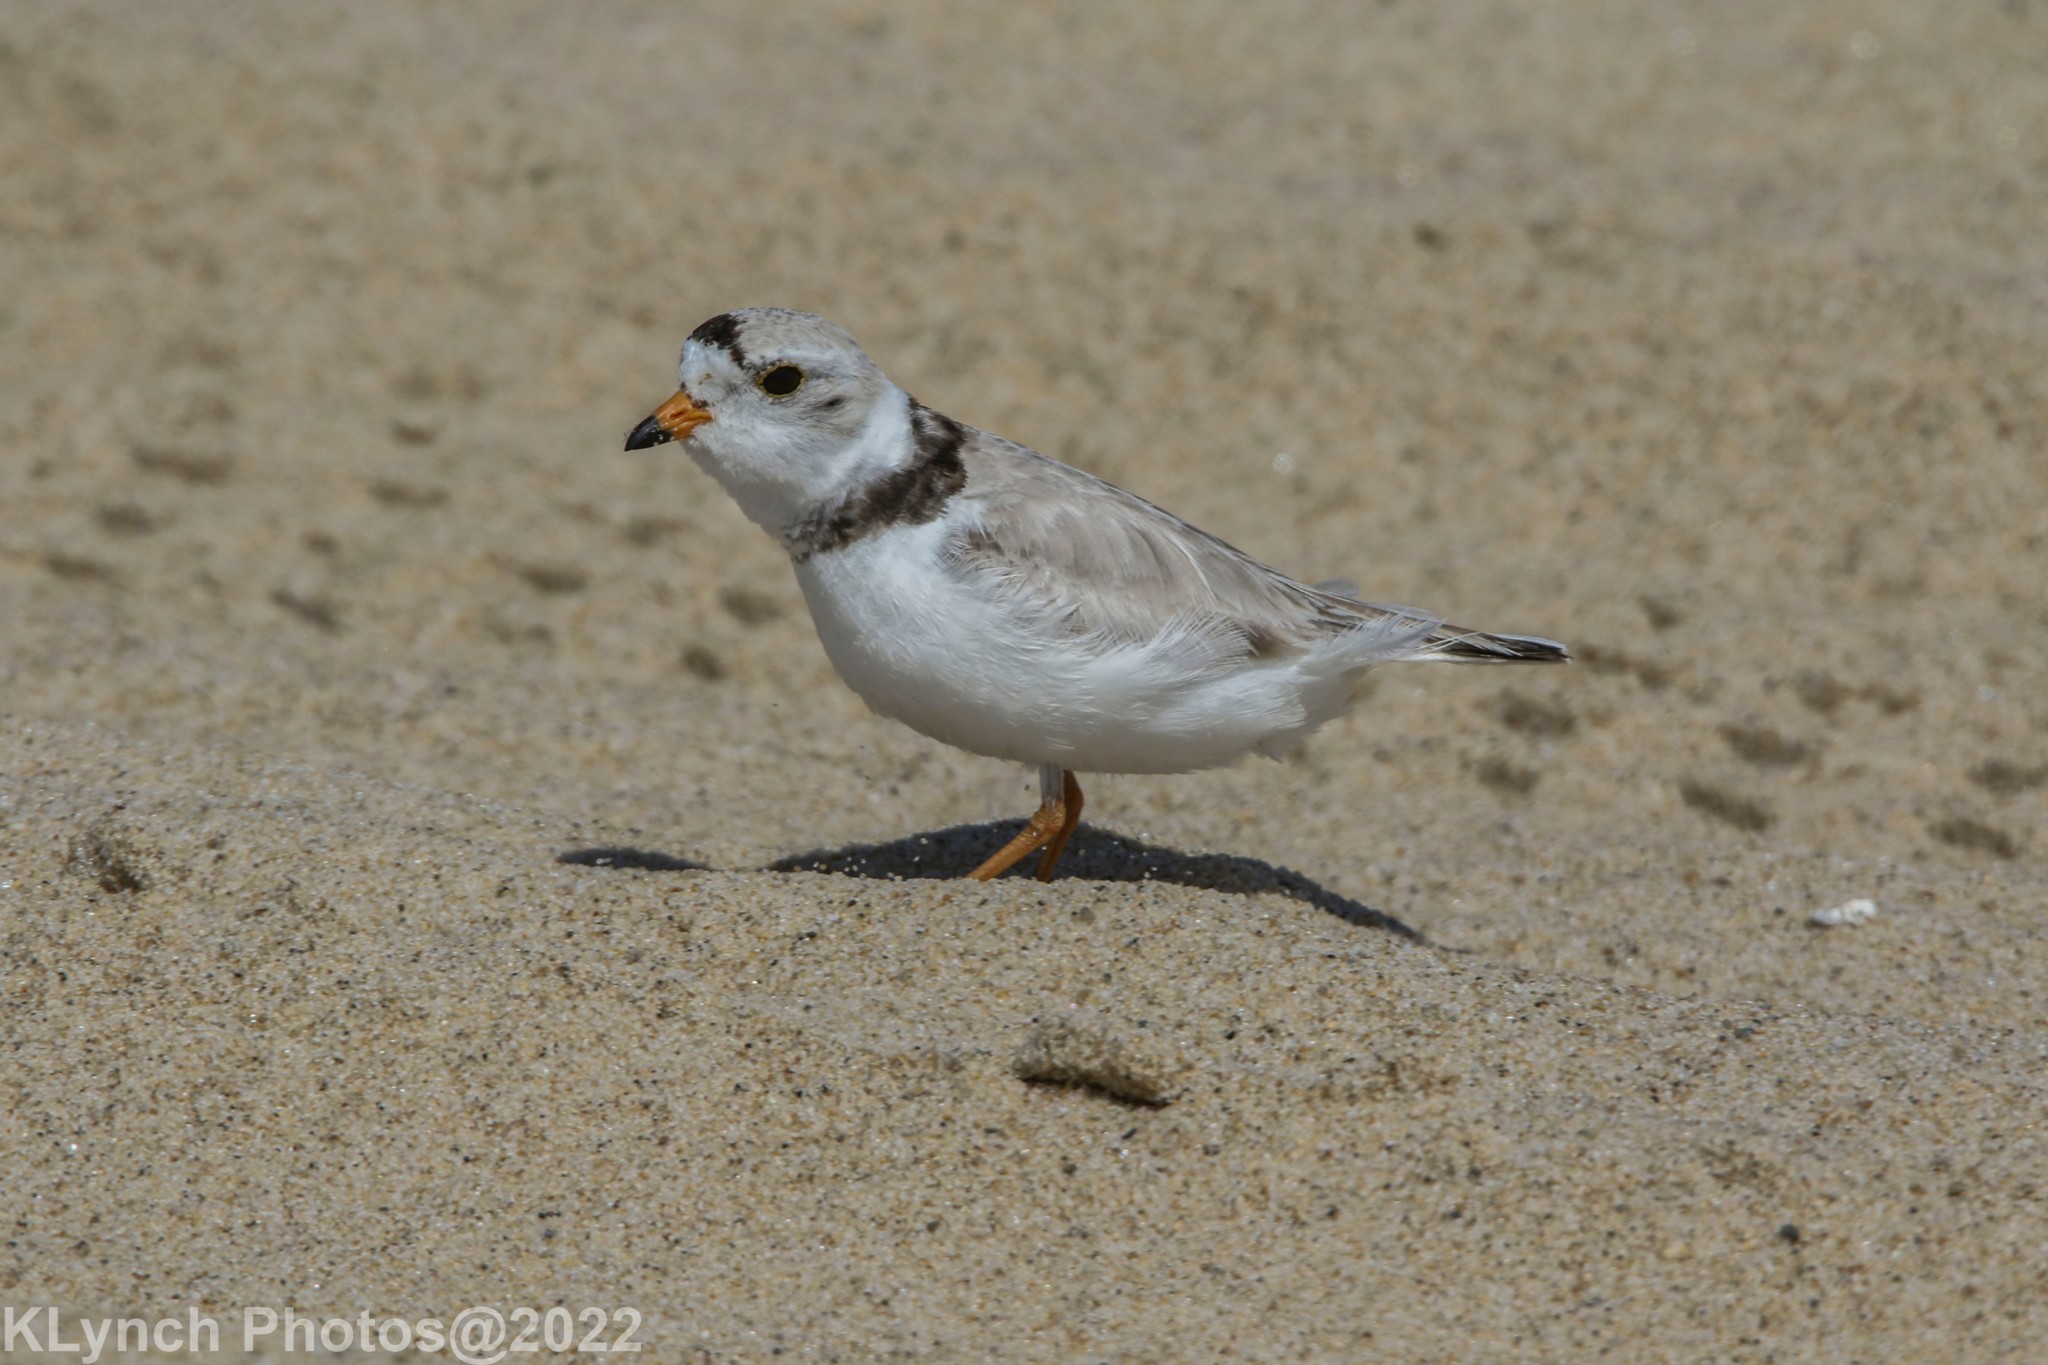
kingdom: Animalia
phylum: Chordata
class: Aves
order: Charadriiformes
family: Charadriidae
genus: Charadrius
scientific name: Charadrius melodus
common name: Piping plover
